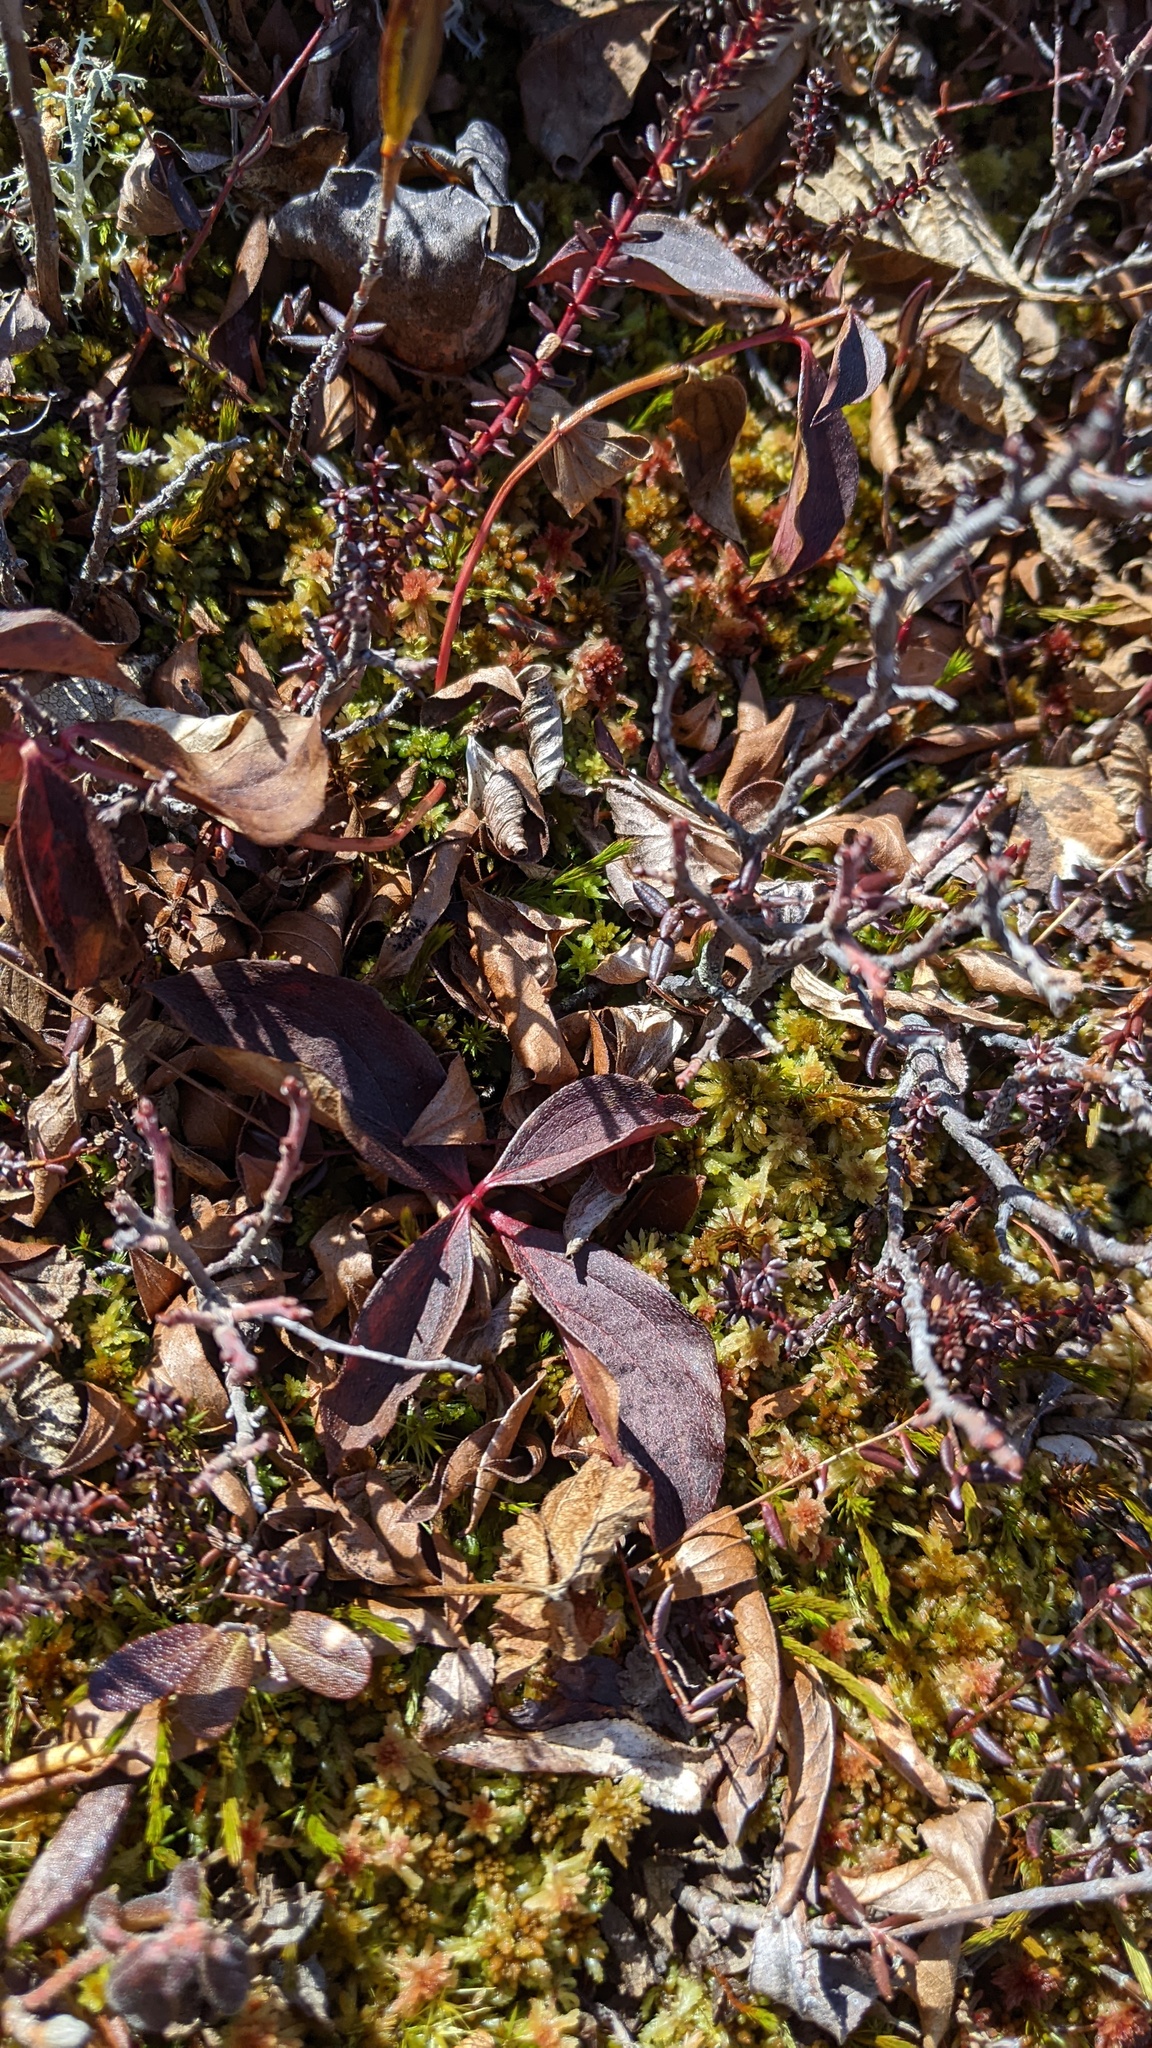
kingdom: Plantae
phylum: Tracheophyta
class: Magnoliopsida
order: Cornales
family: Cornaceae
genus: Cornus
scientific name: Cornus canadensis
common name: Creeping dogwood
